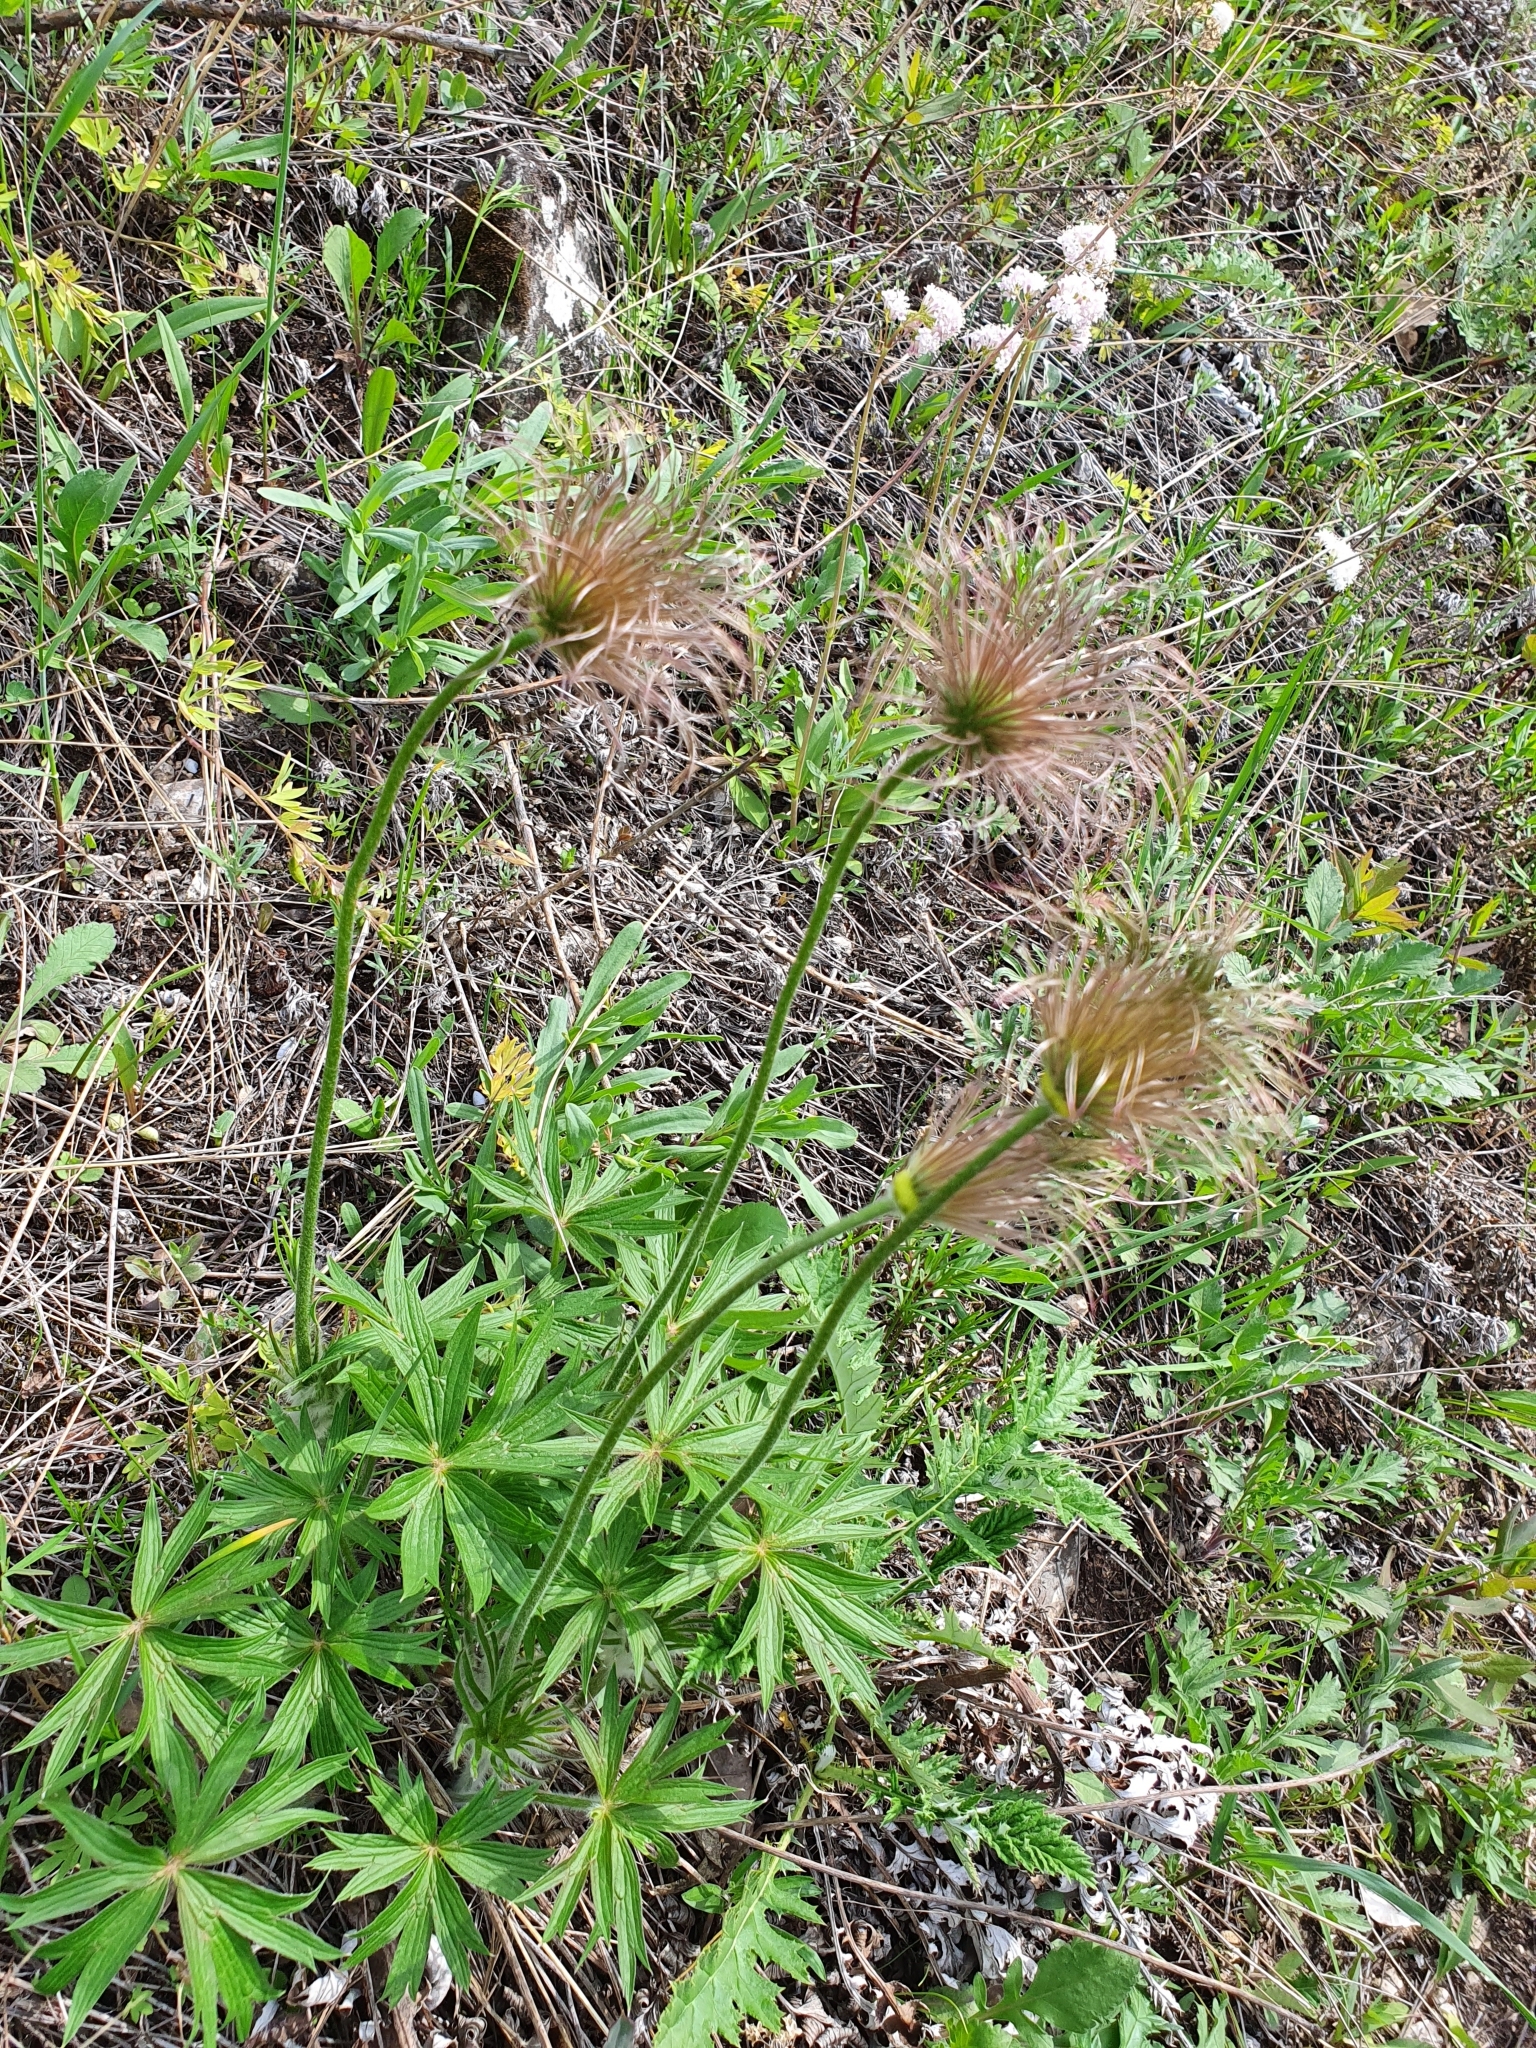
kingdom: Plantae
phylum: Tracheophyta
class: Magnoliopsida
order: Ranunculales
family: Ranunculaceae
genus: Pulsatilla
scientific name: Pulsatilla patens
